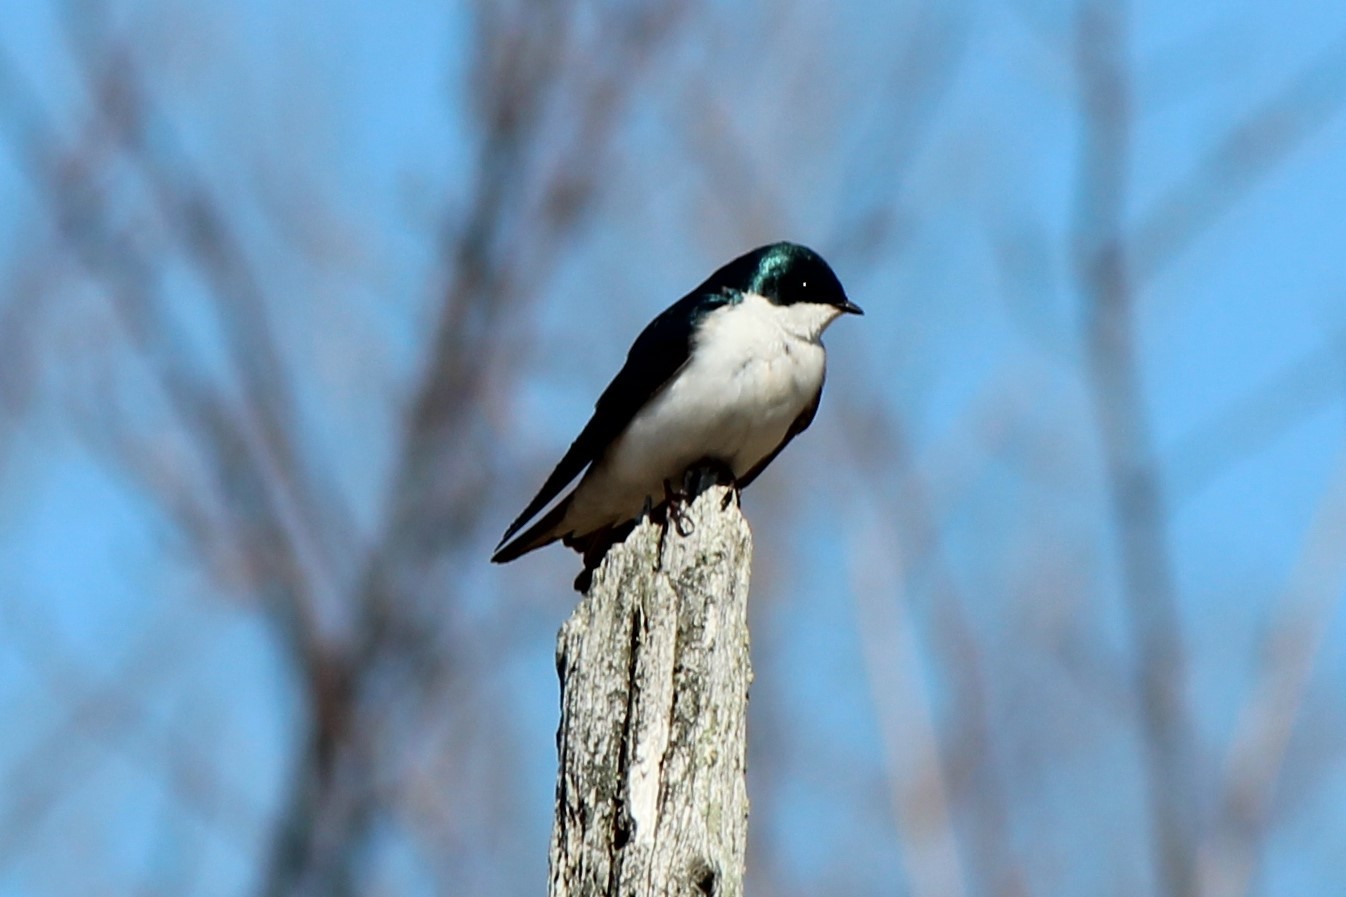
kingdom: Animalia
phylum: Chordata
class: Aves
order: Passeriformes
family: Hirundinidae
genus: Tachycineta
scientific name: Tachycineta bicolor
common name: Tree swallow
